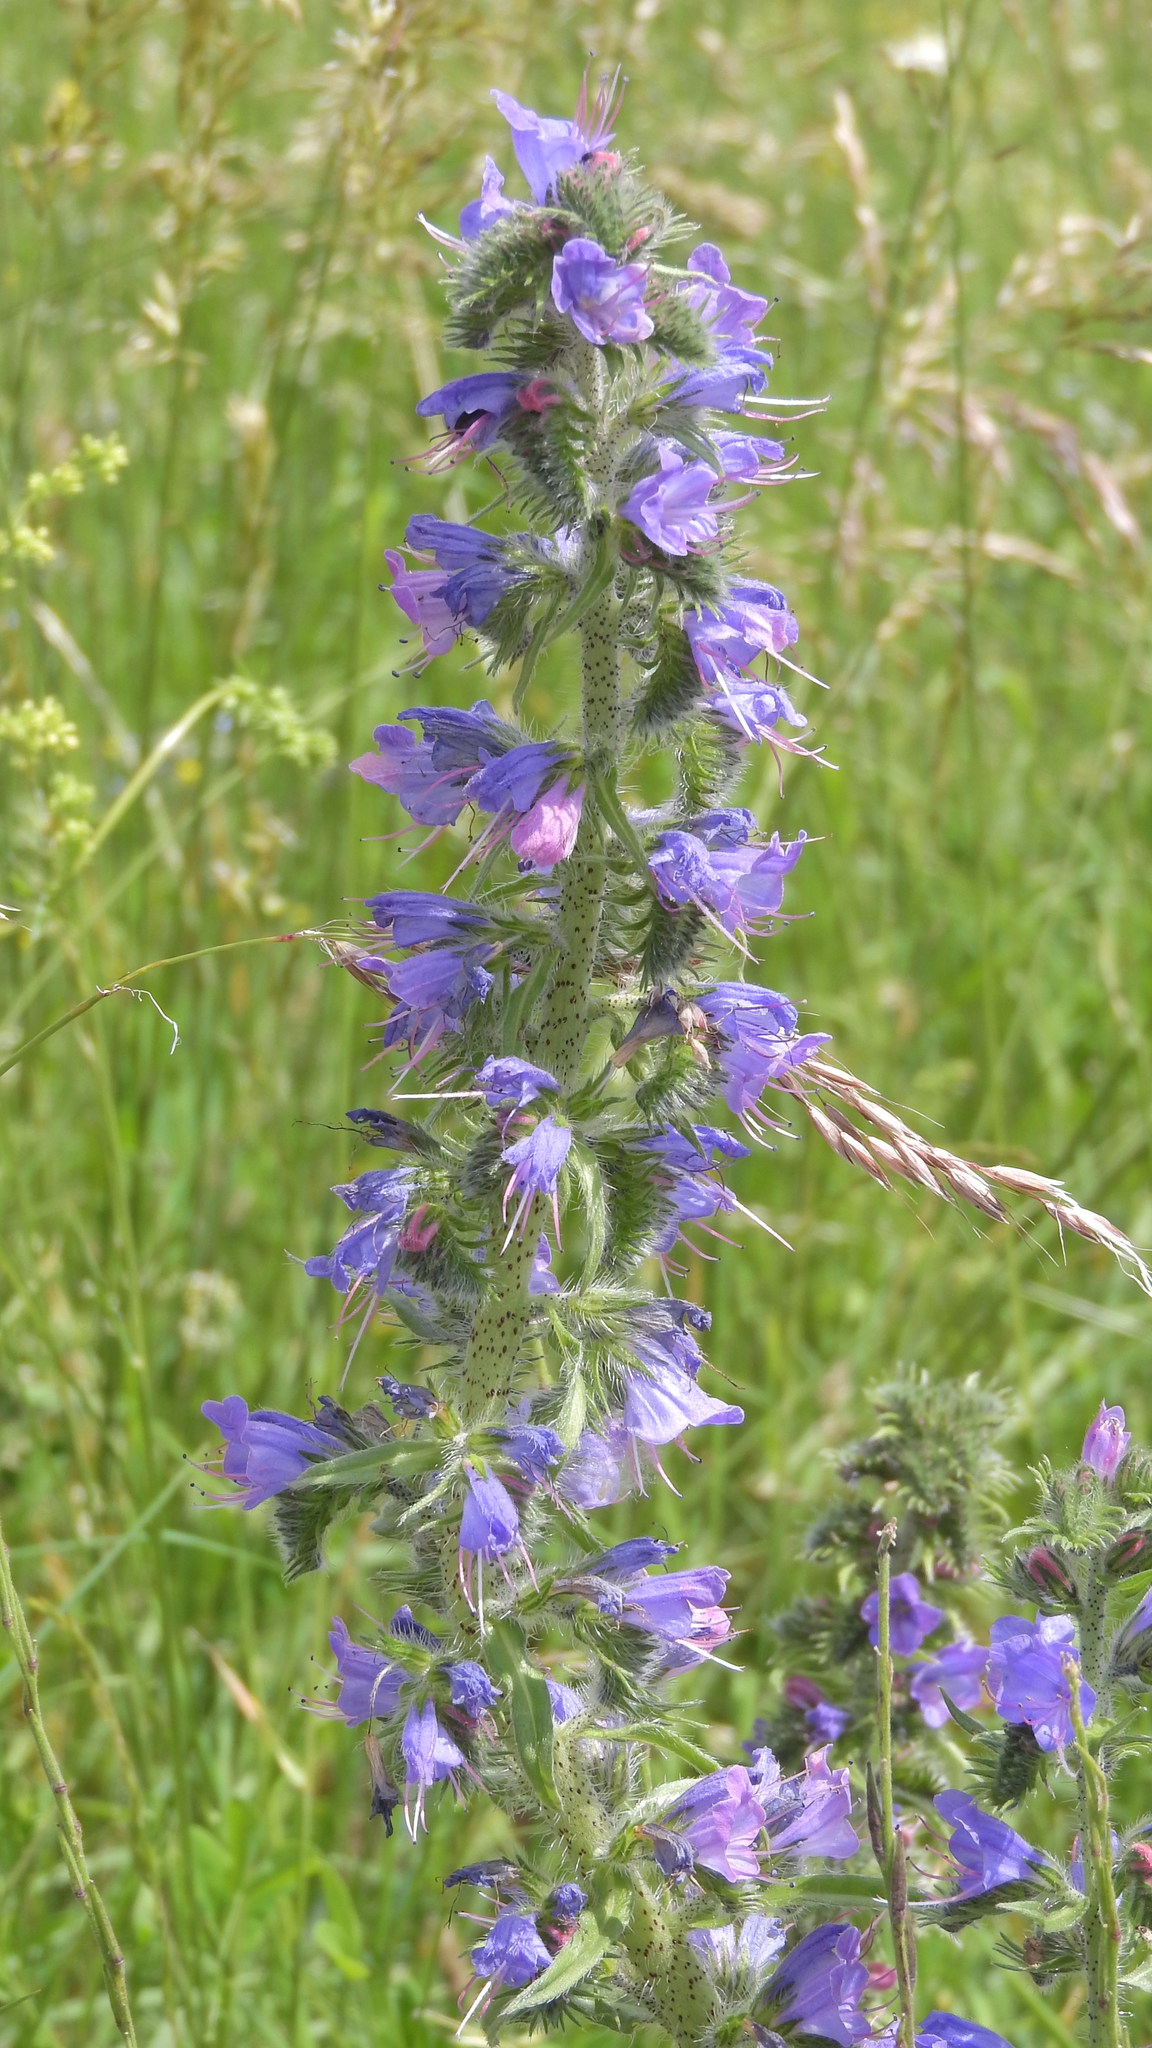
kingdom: Plantae
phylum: Tracheophyta
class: Magnoliopsida
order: Boraginales
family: Boraginaceae
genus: Echium
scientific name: Echium vulgare
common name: Common viper's bugloss
